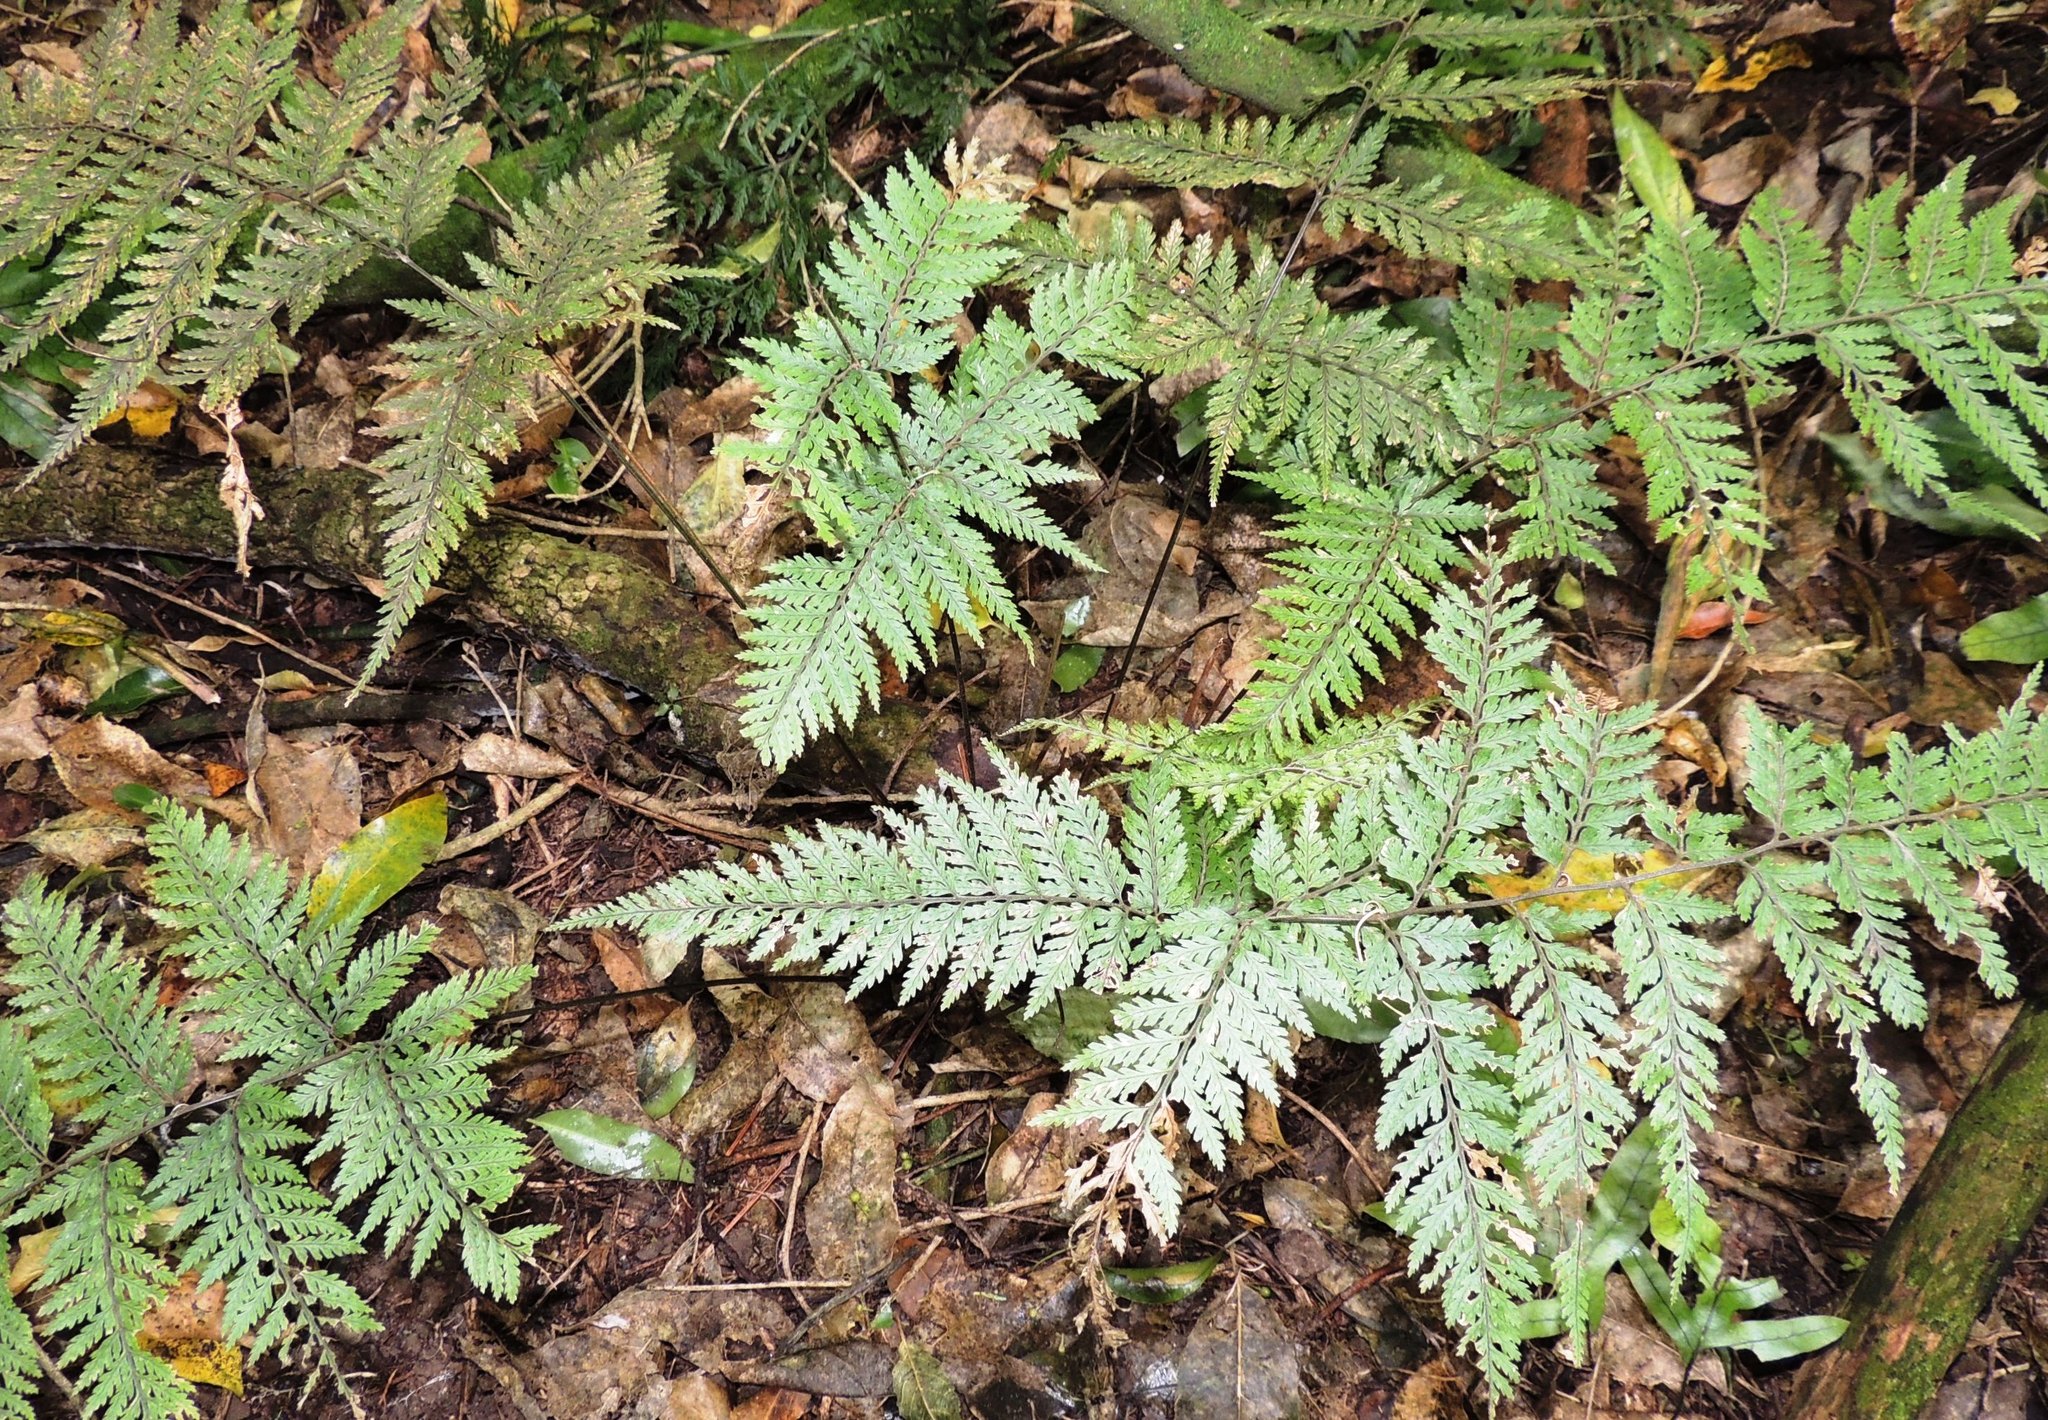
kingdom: Plantae
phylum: Tracheophyta
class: Polypodiopsida
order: Polypodiales
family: Dryopteridaceae
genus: Parapolystichum
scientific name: Parapolystichum glabellum
